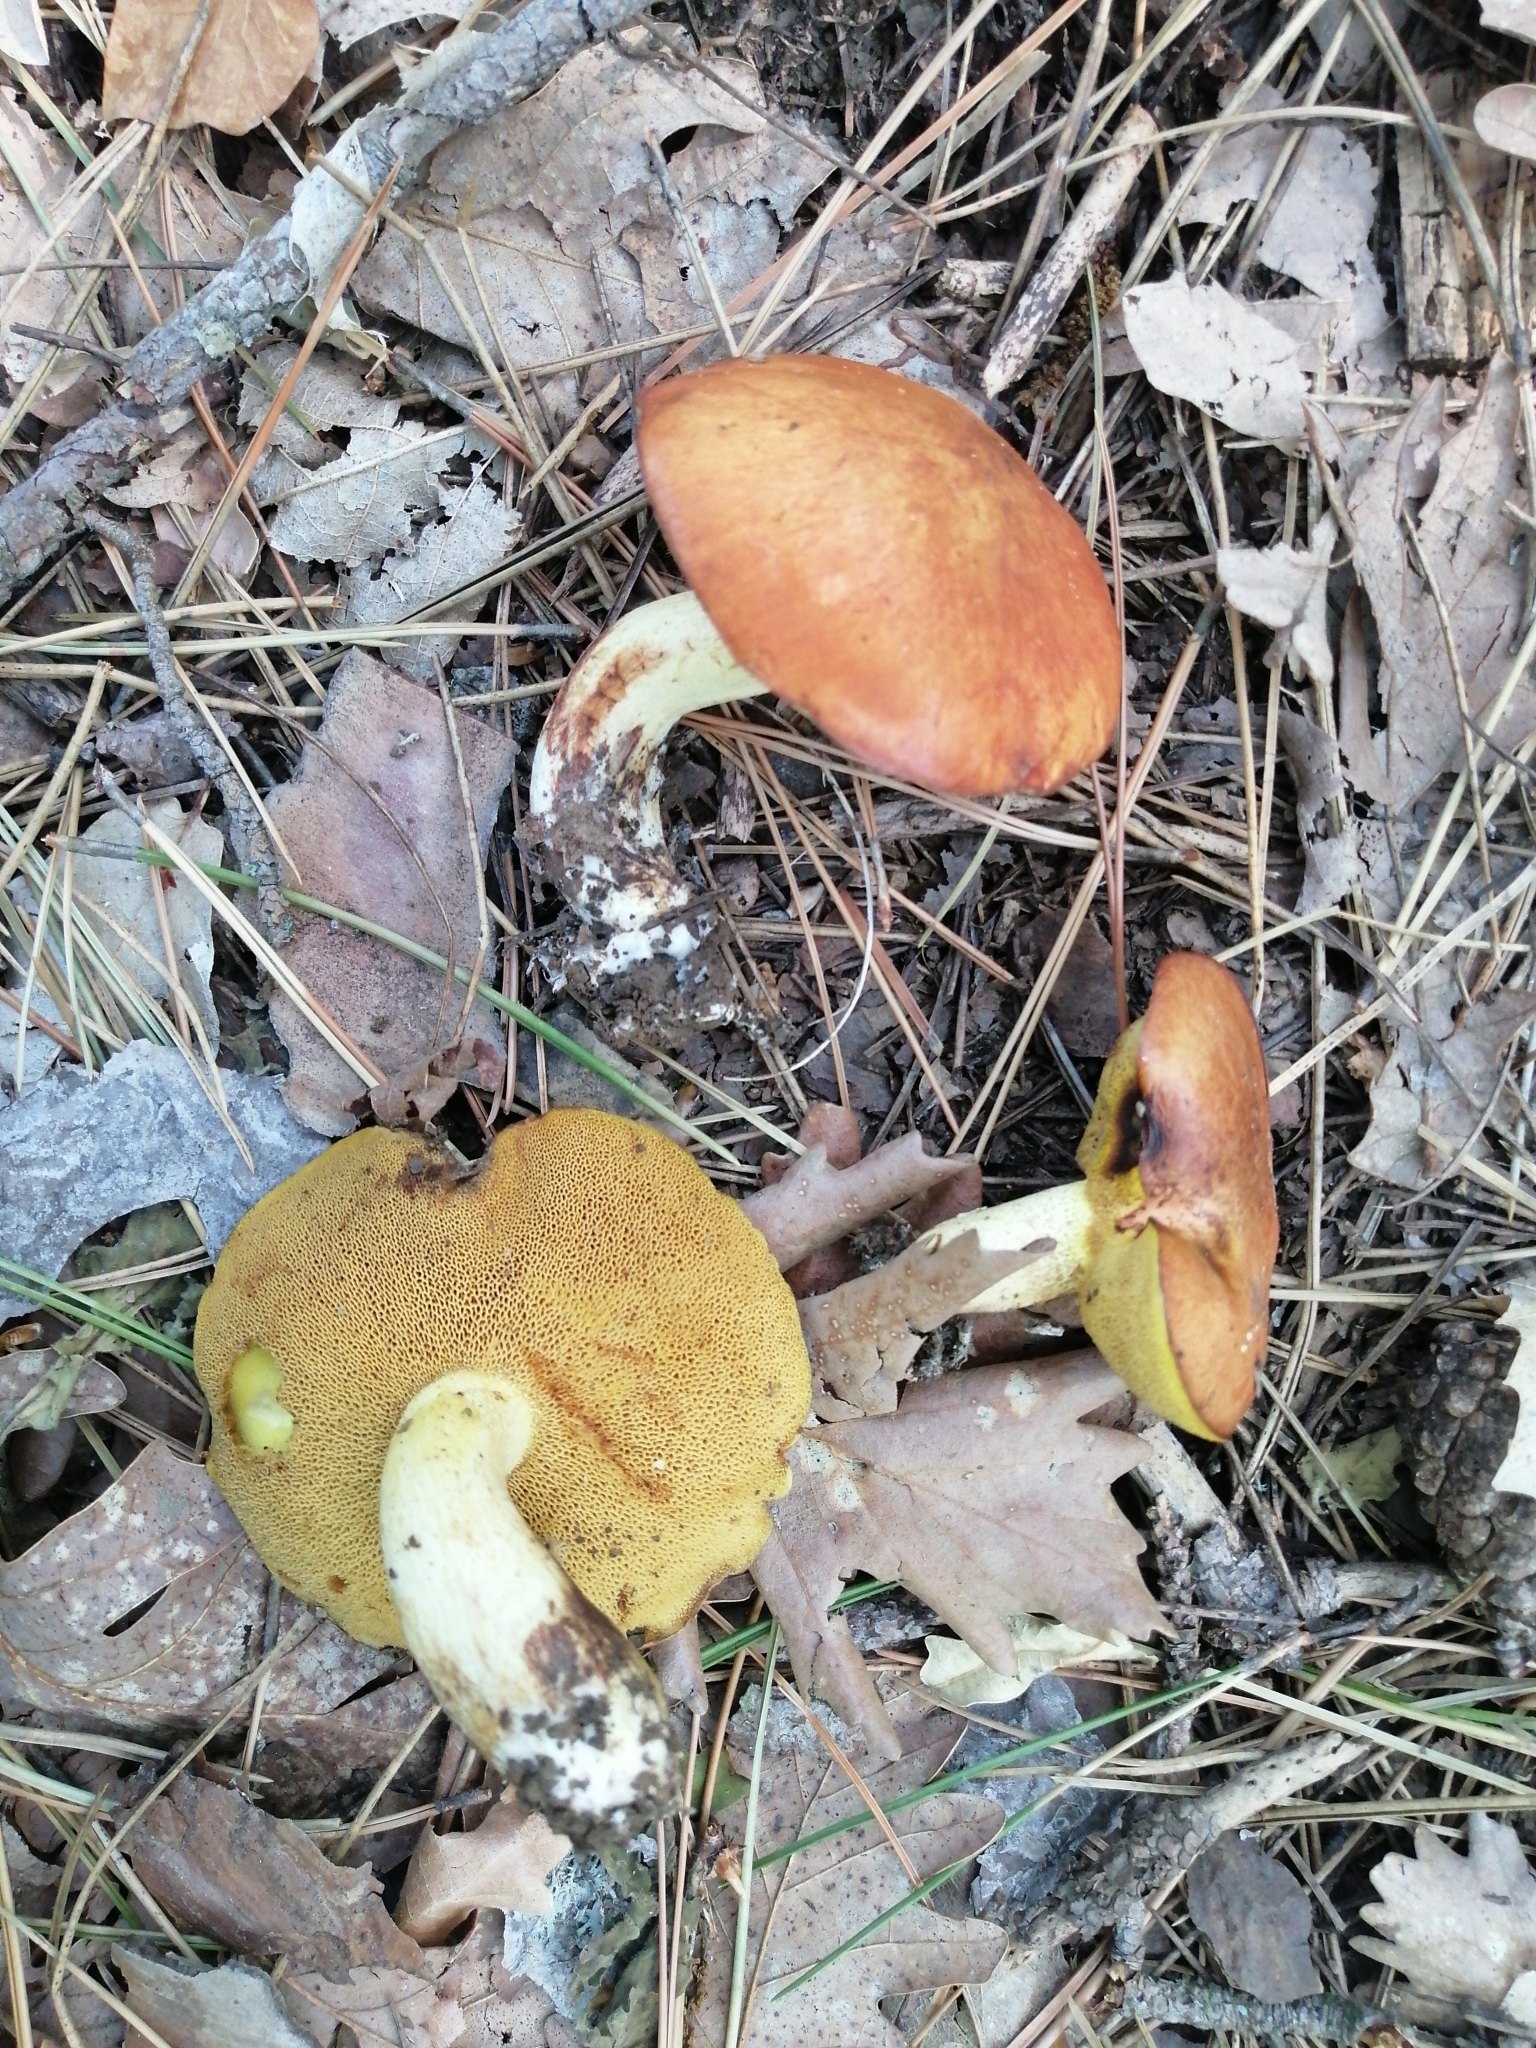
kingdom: Fungi
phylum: Basidiomycota
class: Agaricomycetes
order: Boletales
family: Suillaceae
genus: Suillus
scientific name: Suillus granulatus
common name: Weeping bolete
